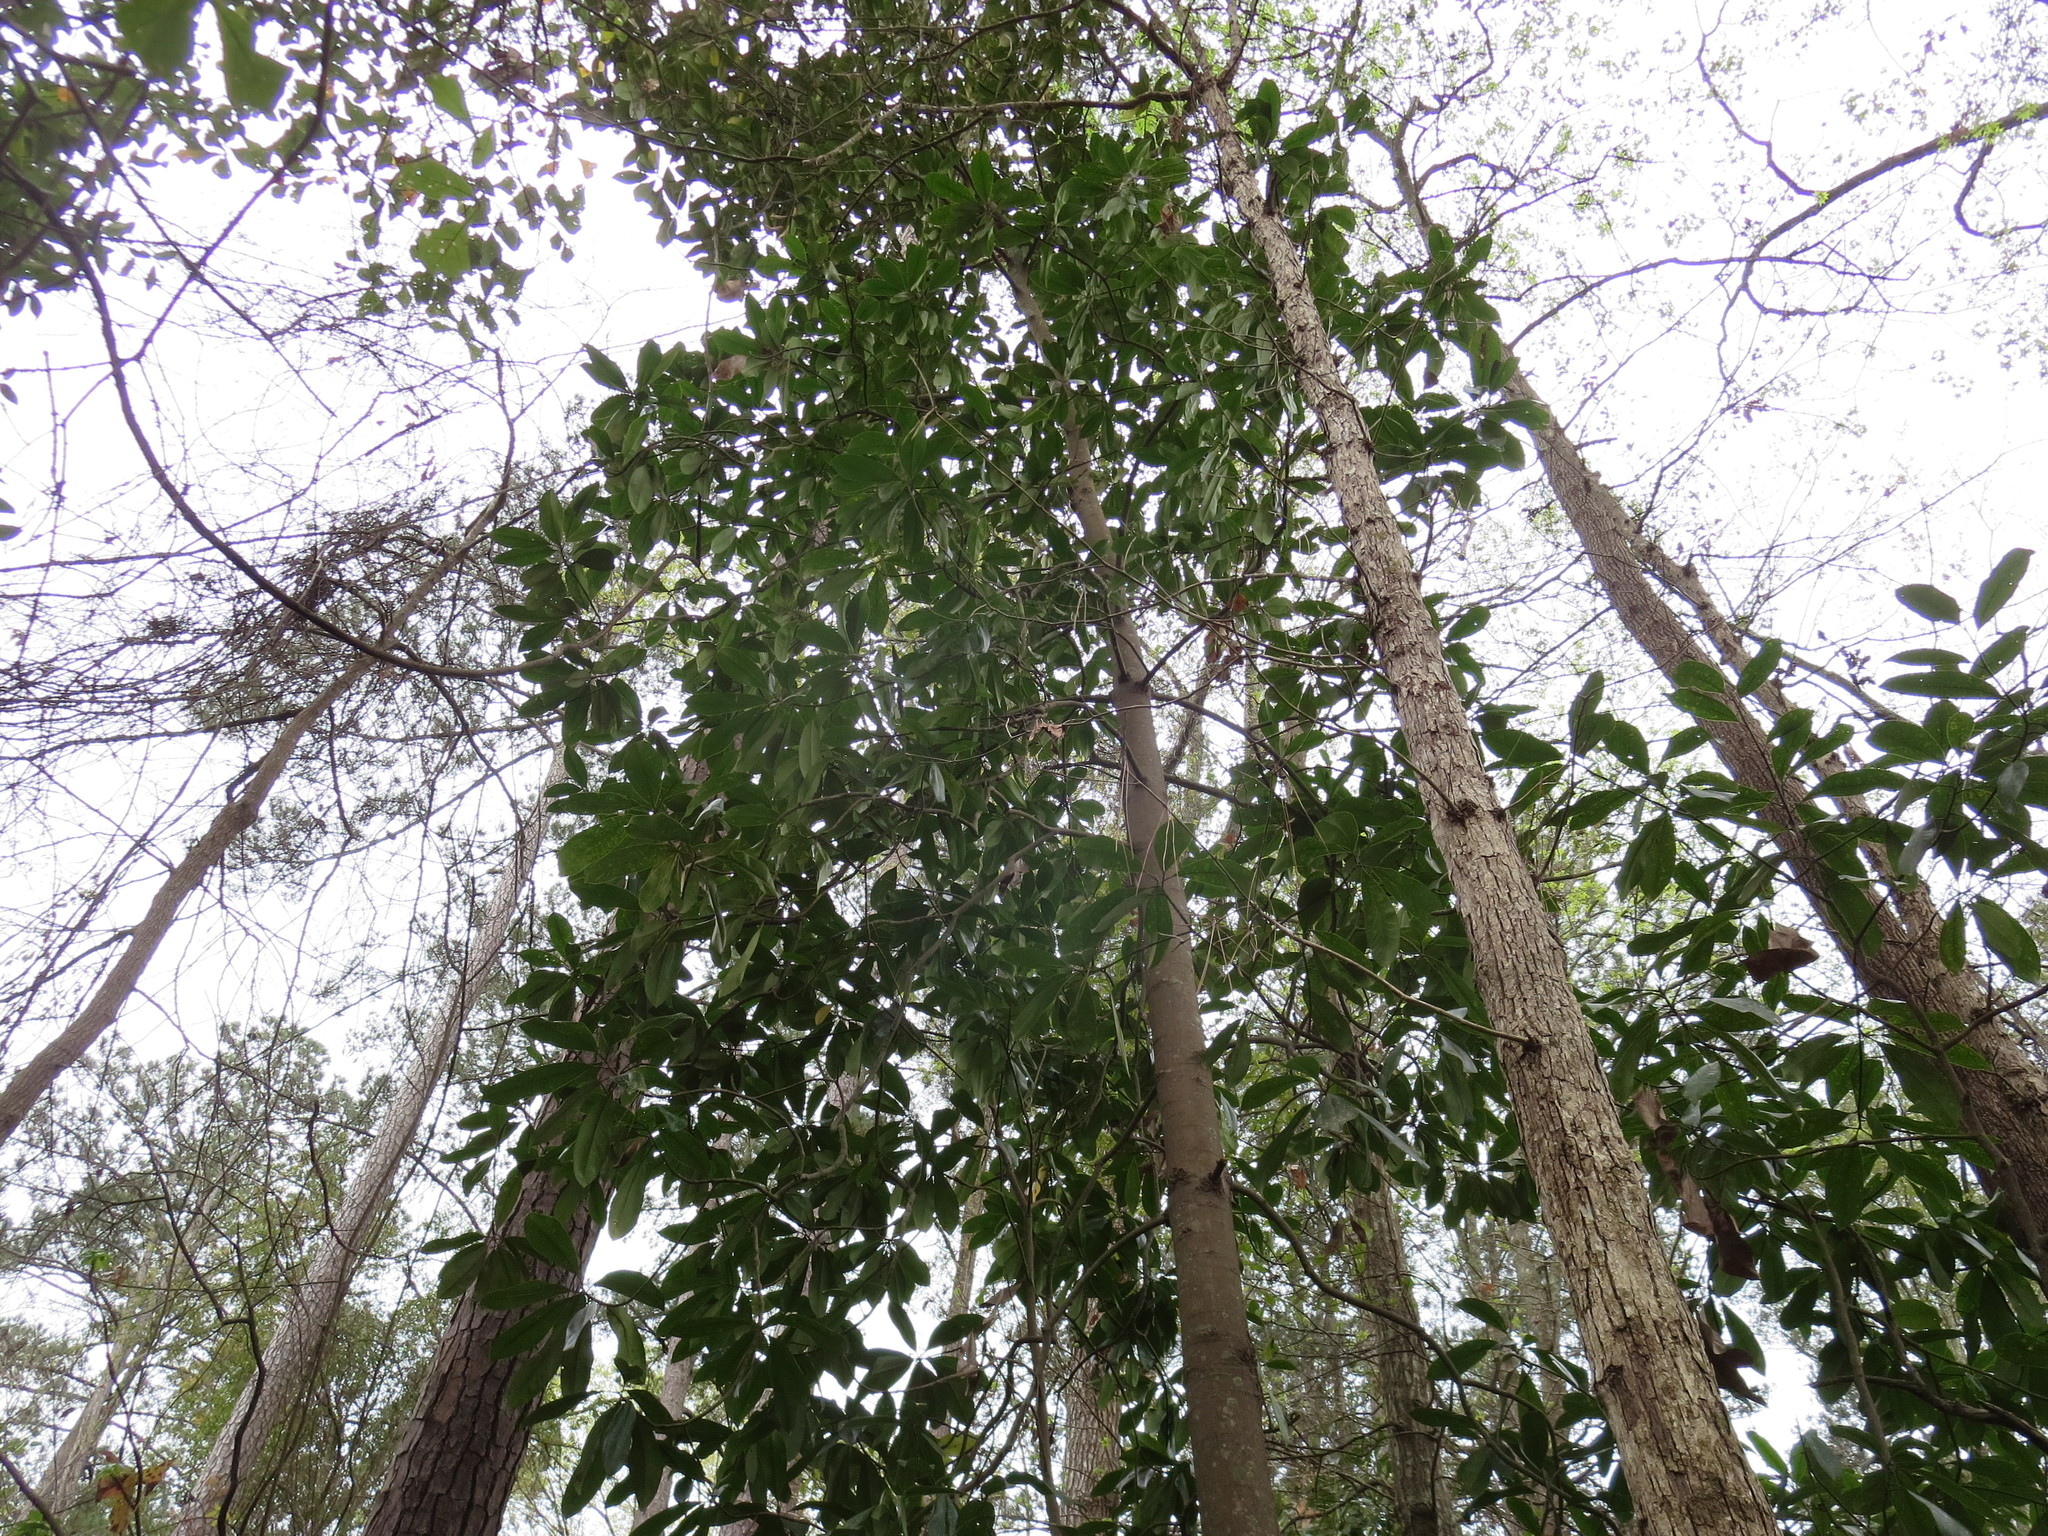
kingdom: Plantae
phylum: Tracheophyta
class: Magnoliopsida
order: Magnoliales
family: Magnoliaceae
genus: Magnolia
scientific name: Magnolia grandiflora
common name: Southern magnolia
